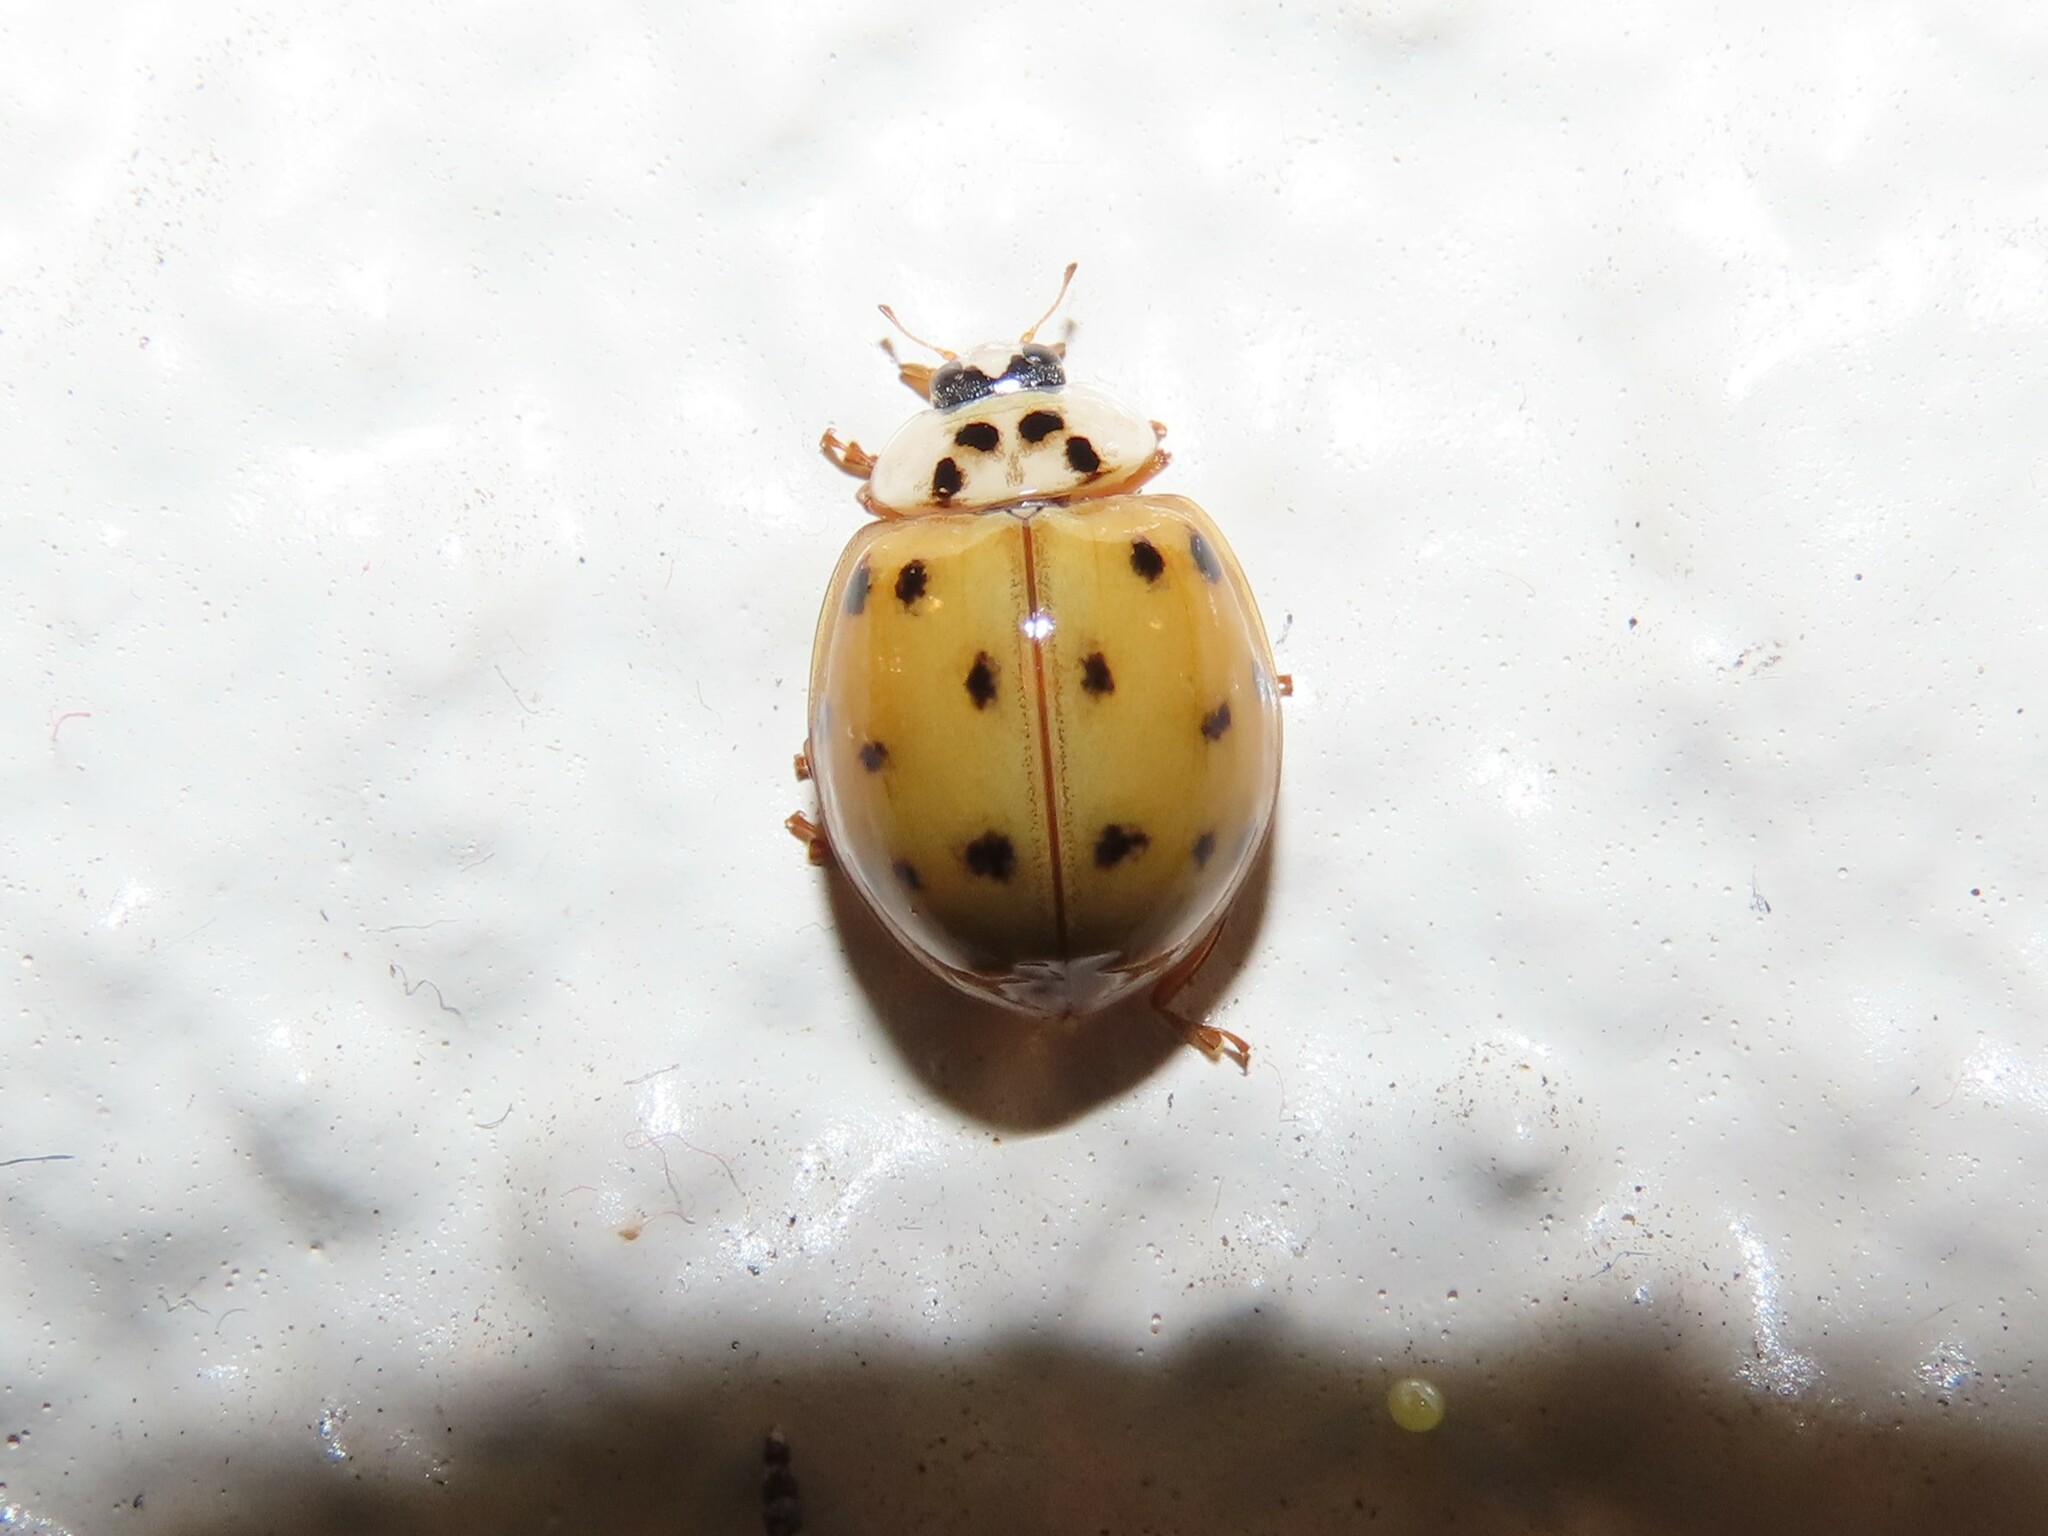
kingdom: Animalia
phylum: Arthropoda
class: Insecta
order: Coleoptera
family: Coccinellidae
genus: Harmonia
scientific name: Harmonia axyridis
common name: Harlequin ladybird
